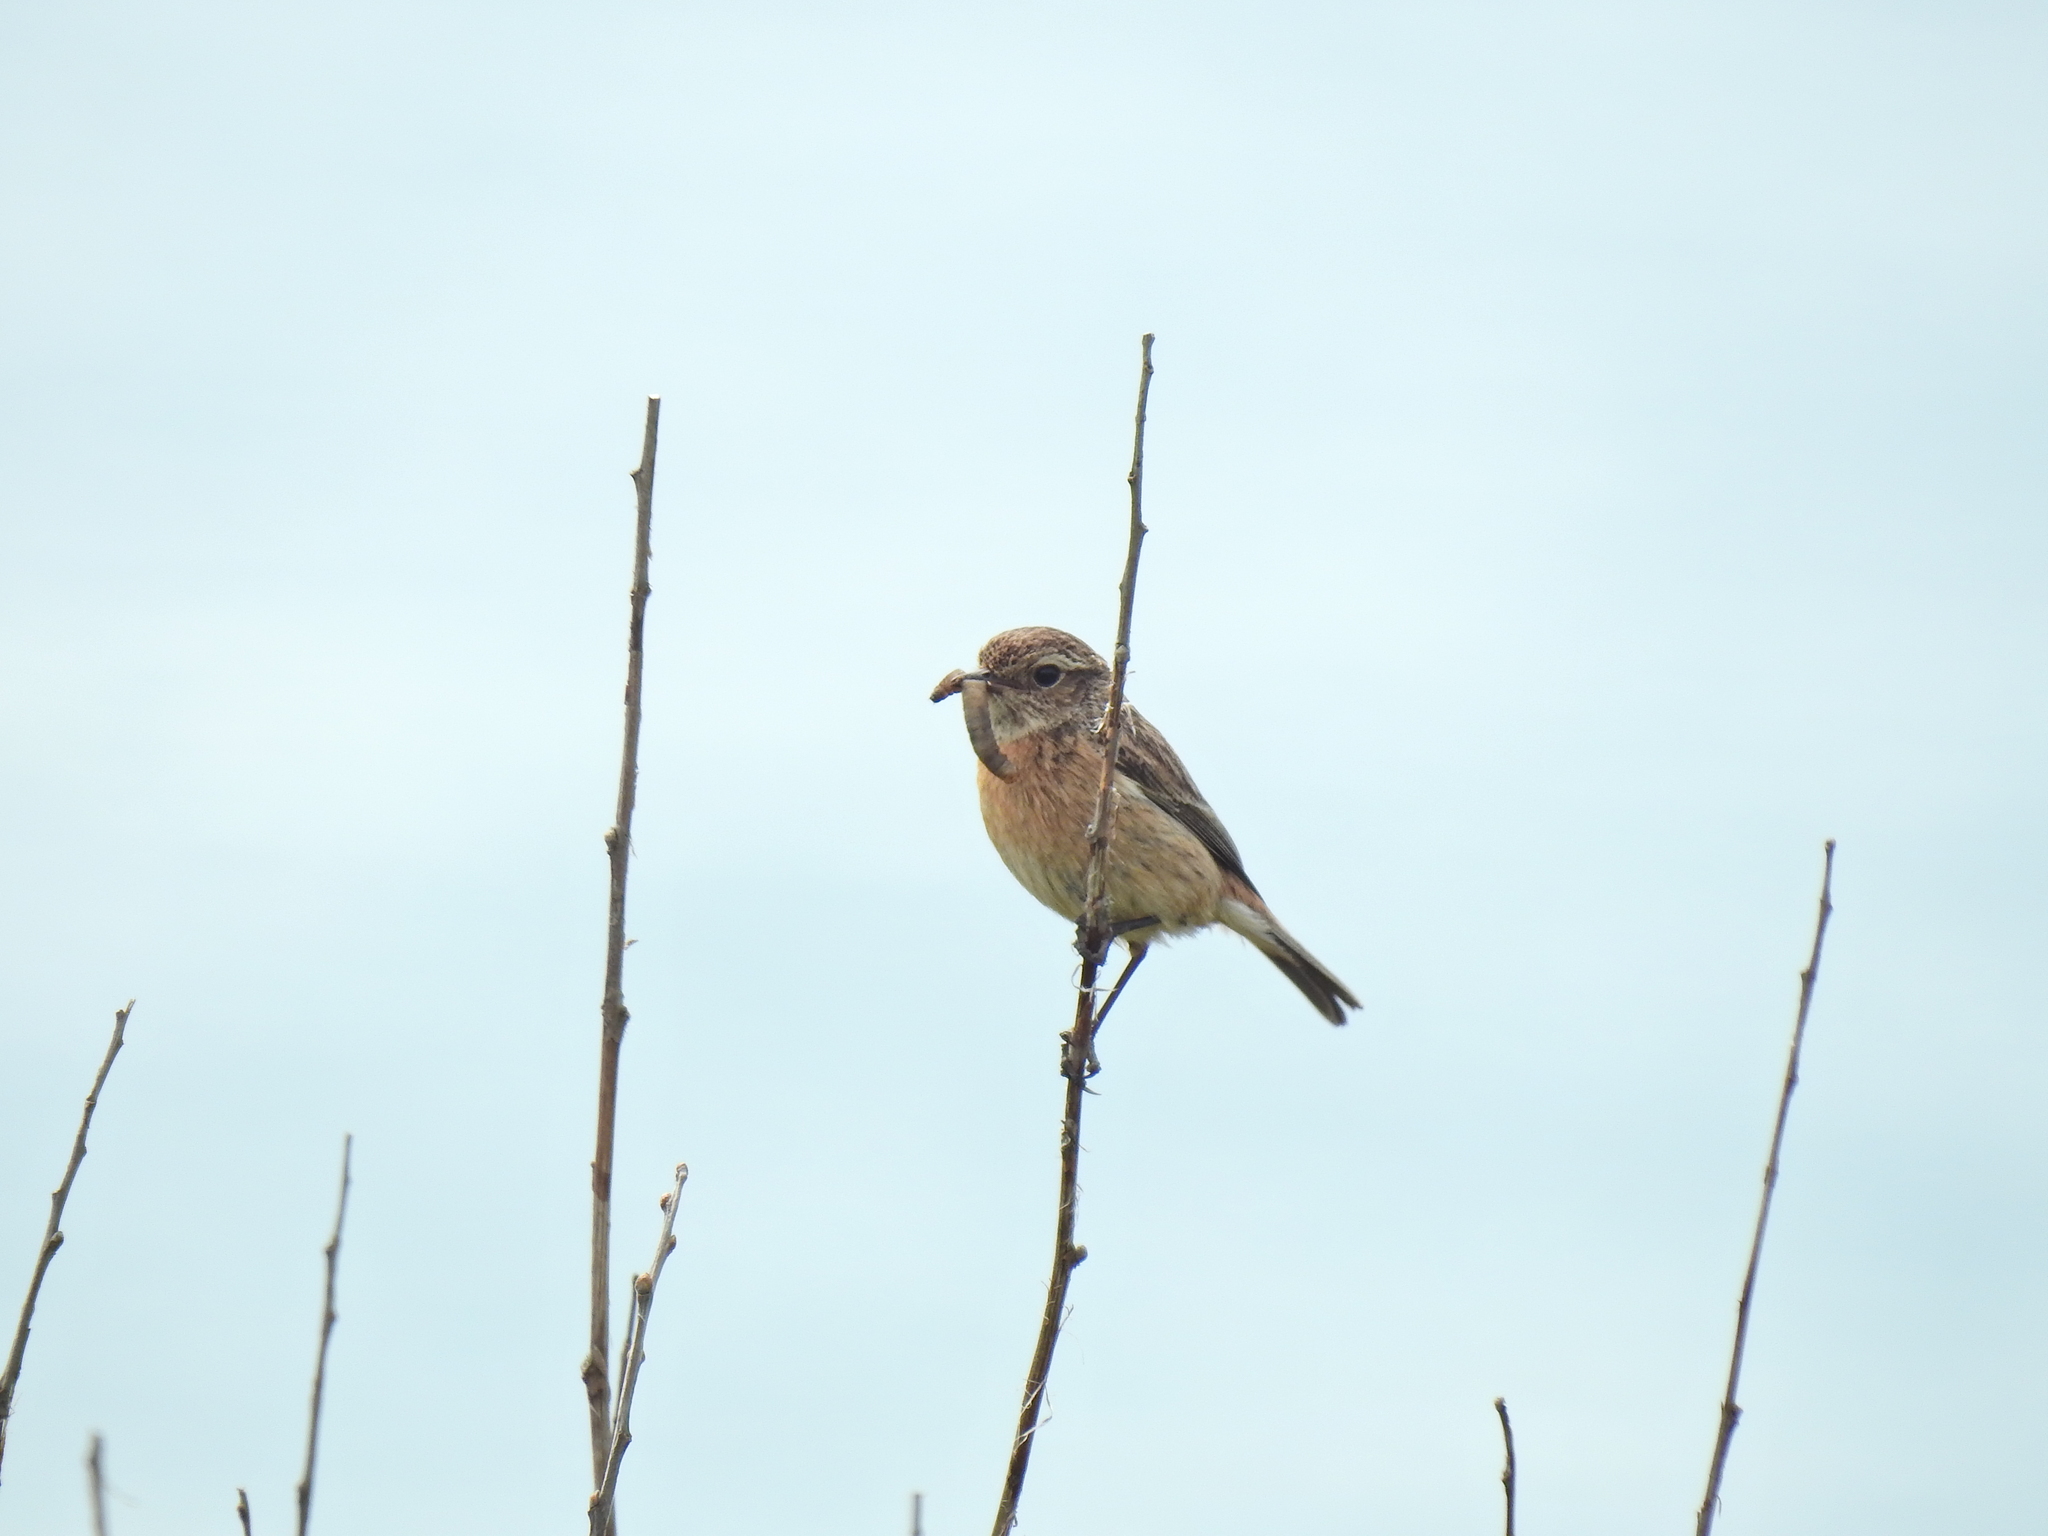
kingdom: Animalia
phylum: Chordata
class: Aves
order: Passeriformes
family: Muscicapidae
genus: Saxicola
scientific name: Saxicola rubicola
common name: European stonechat
